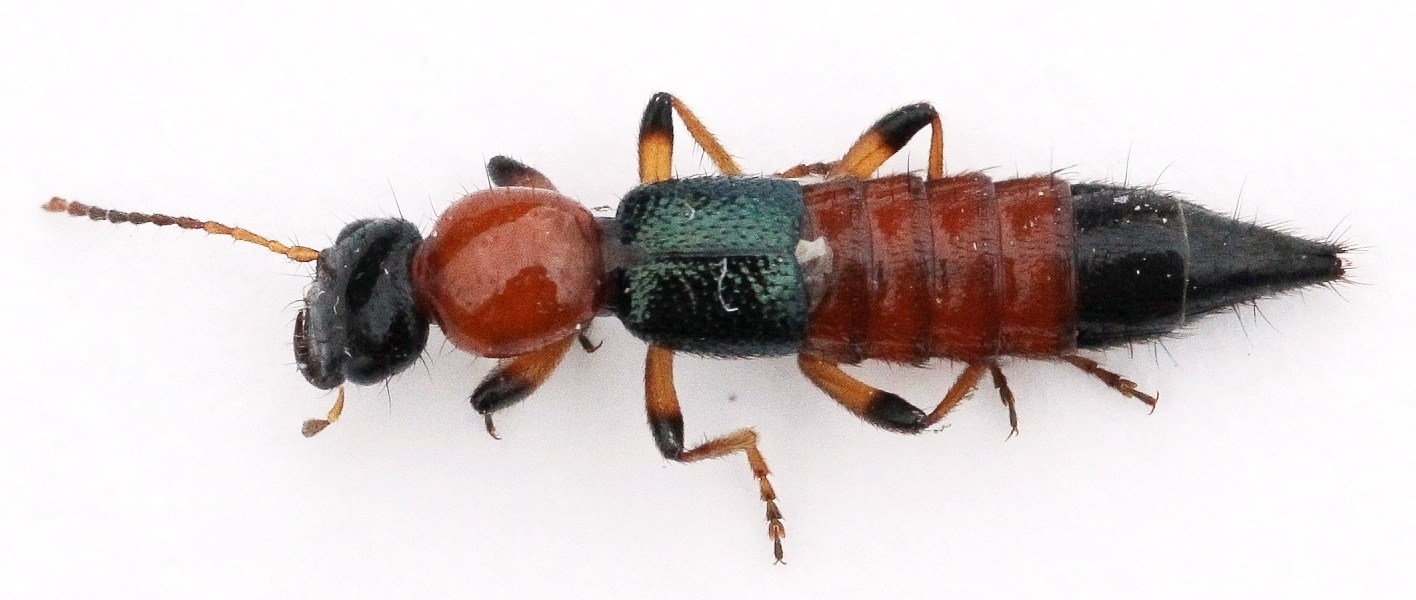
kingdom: Animalia
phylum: Arthropoda
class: Insecta
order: Coleoptera
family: Staphylinidae
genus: Paederus
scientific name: Paederus littoralis
